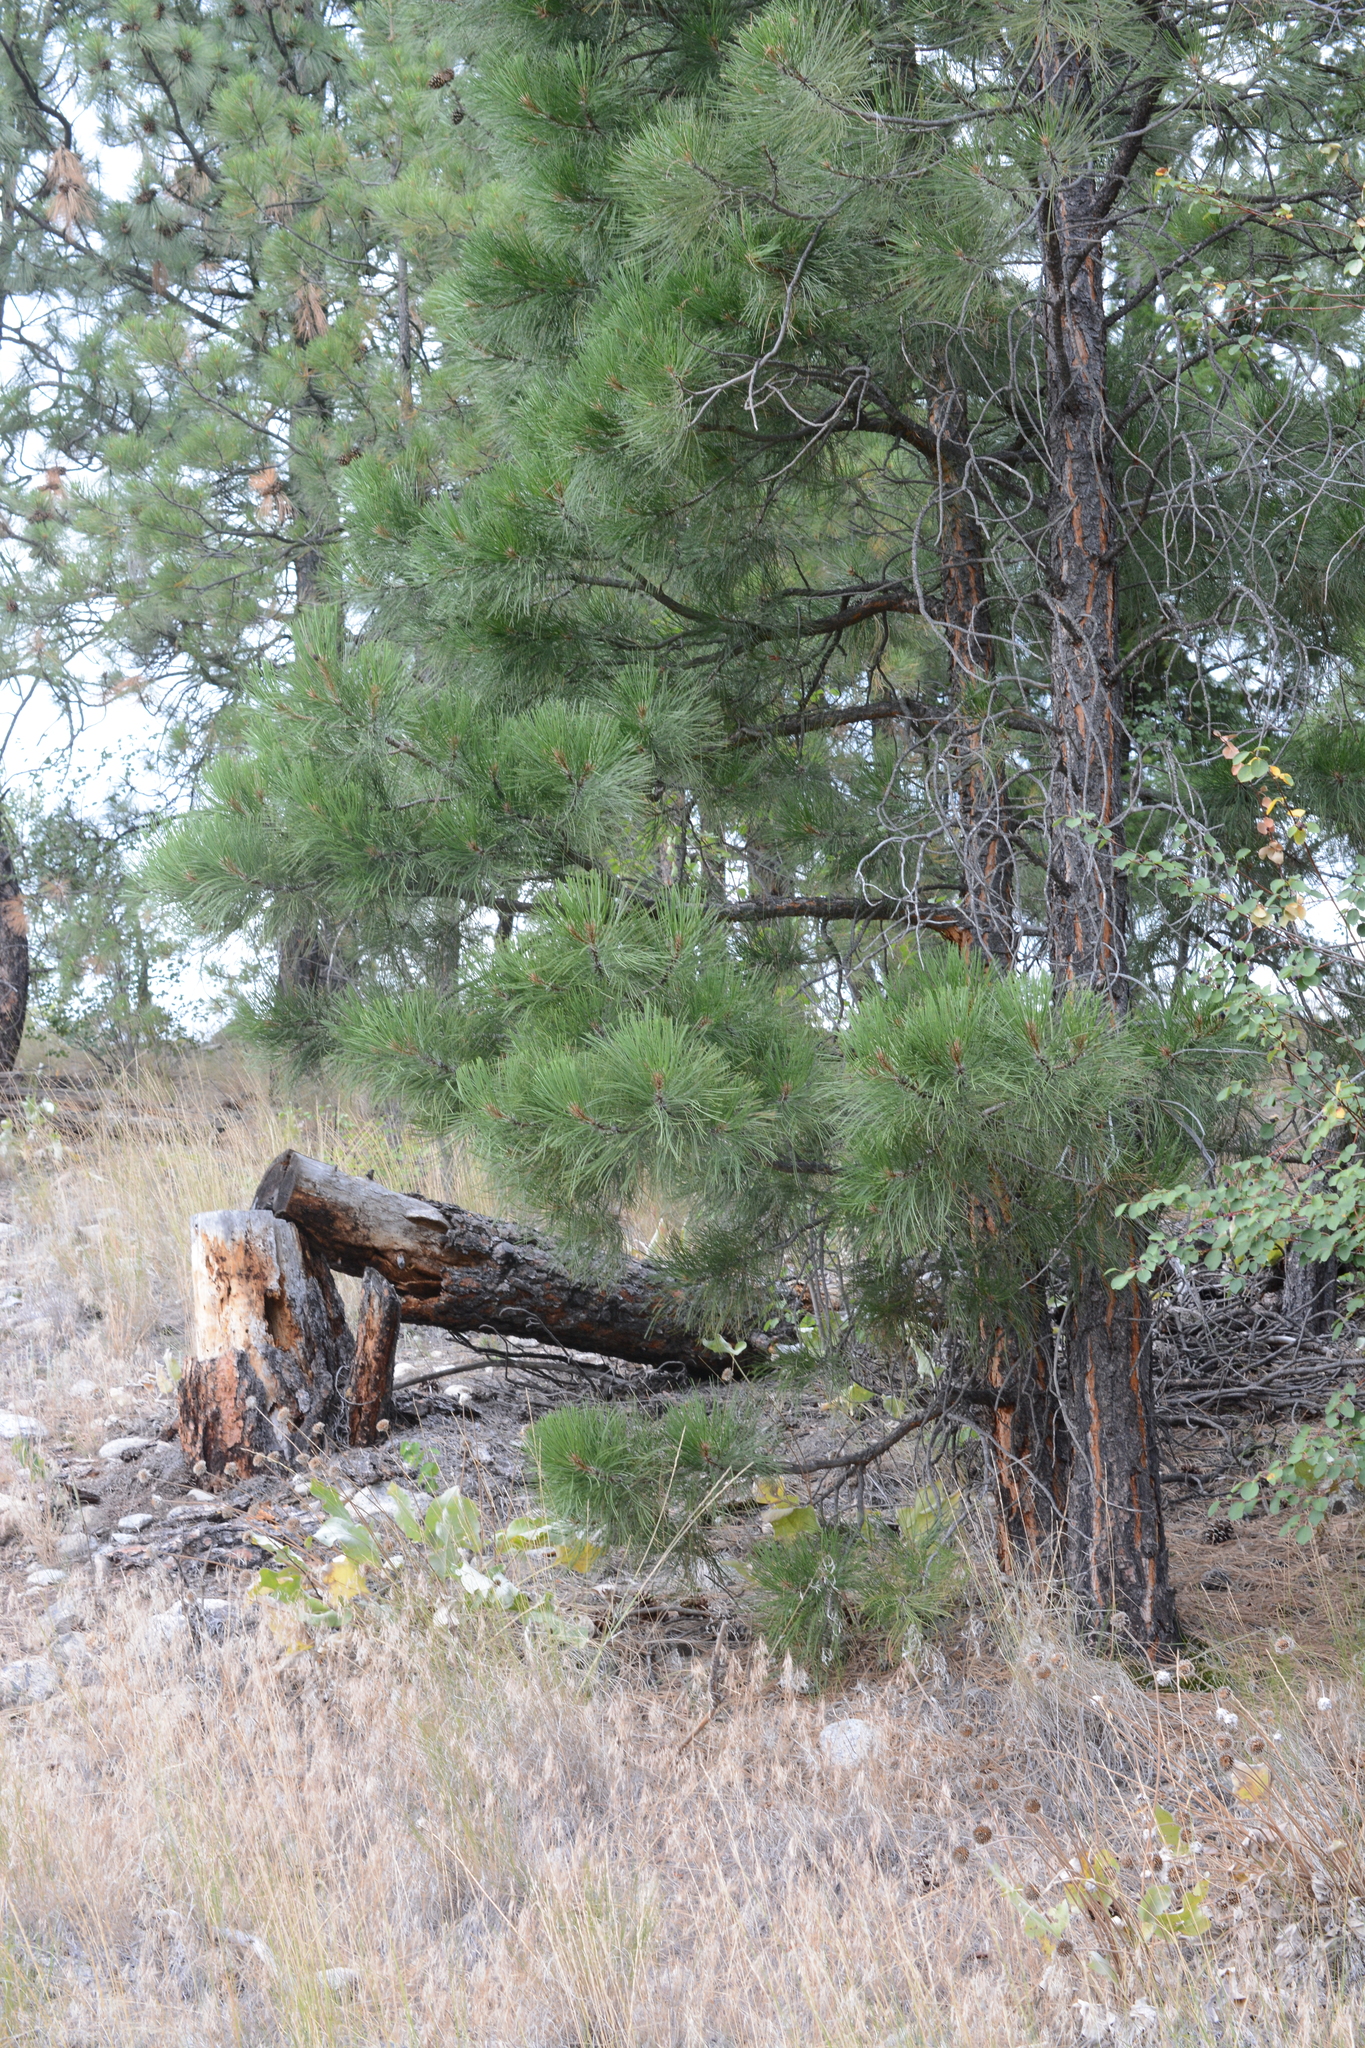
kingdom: Plantae
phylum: Tracheophyta
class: Pinopsida
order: Pinales
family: Pinaceae
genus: Pinus
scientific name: Pinus ponderosa
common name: Western yellow-pine
